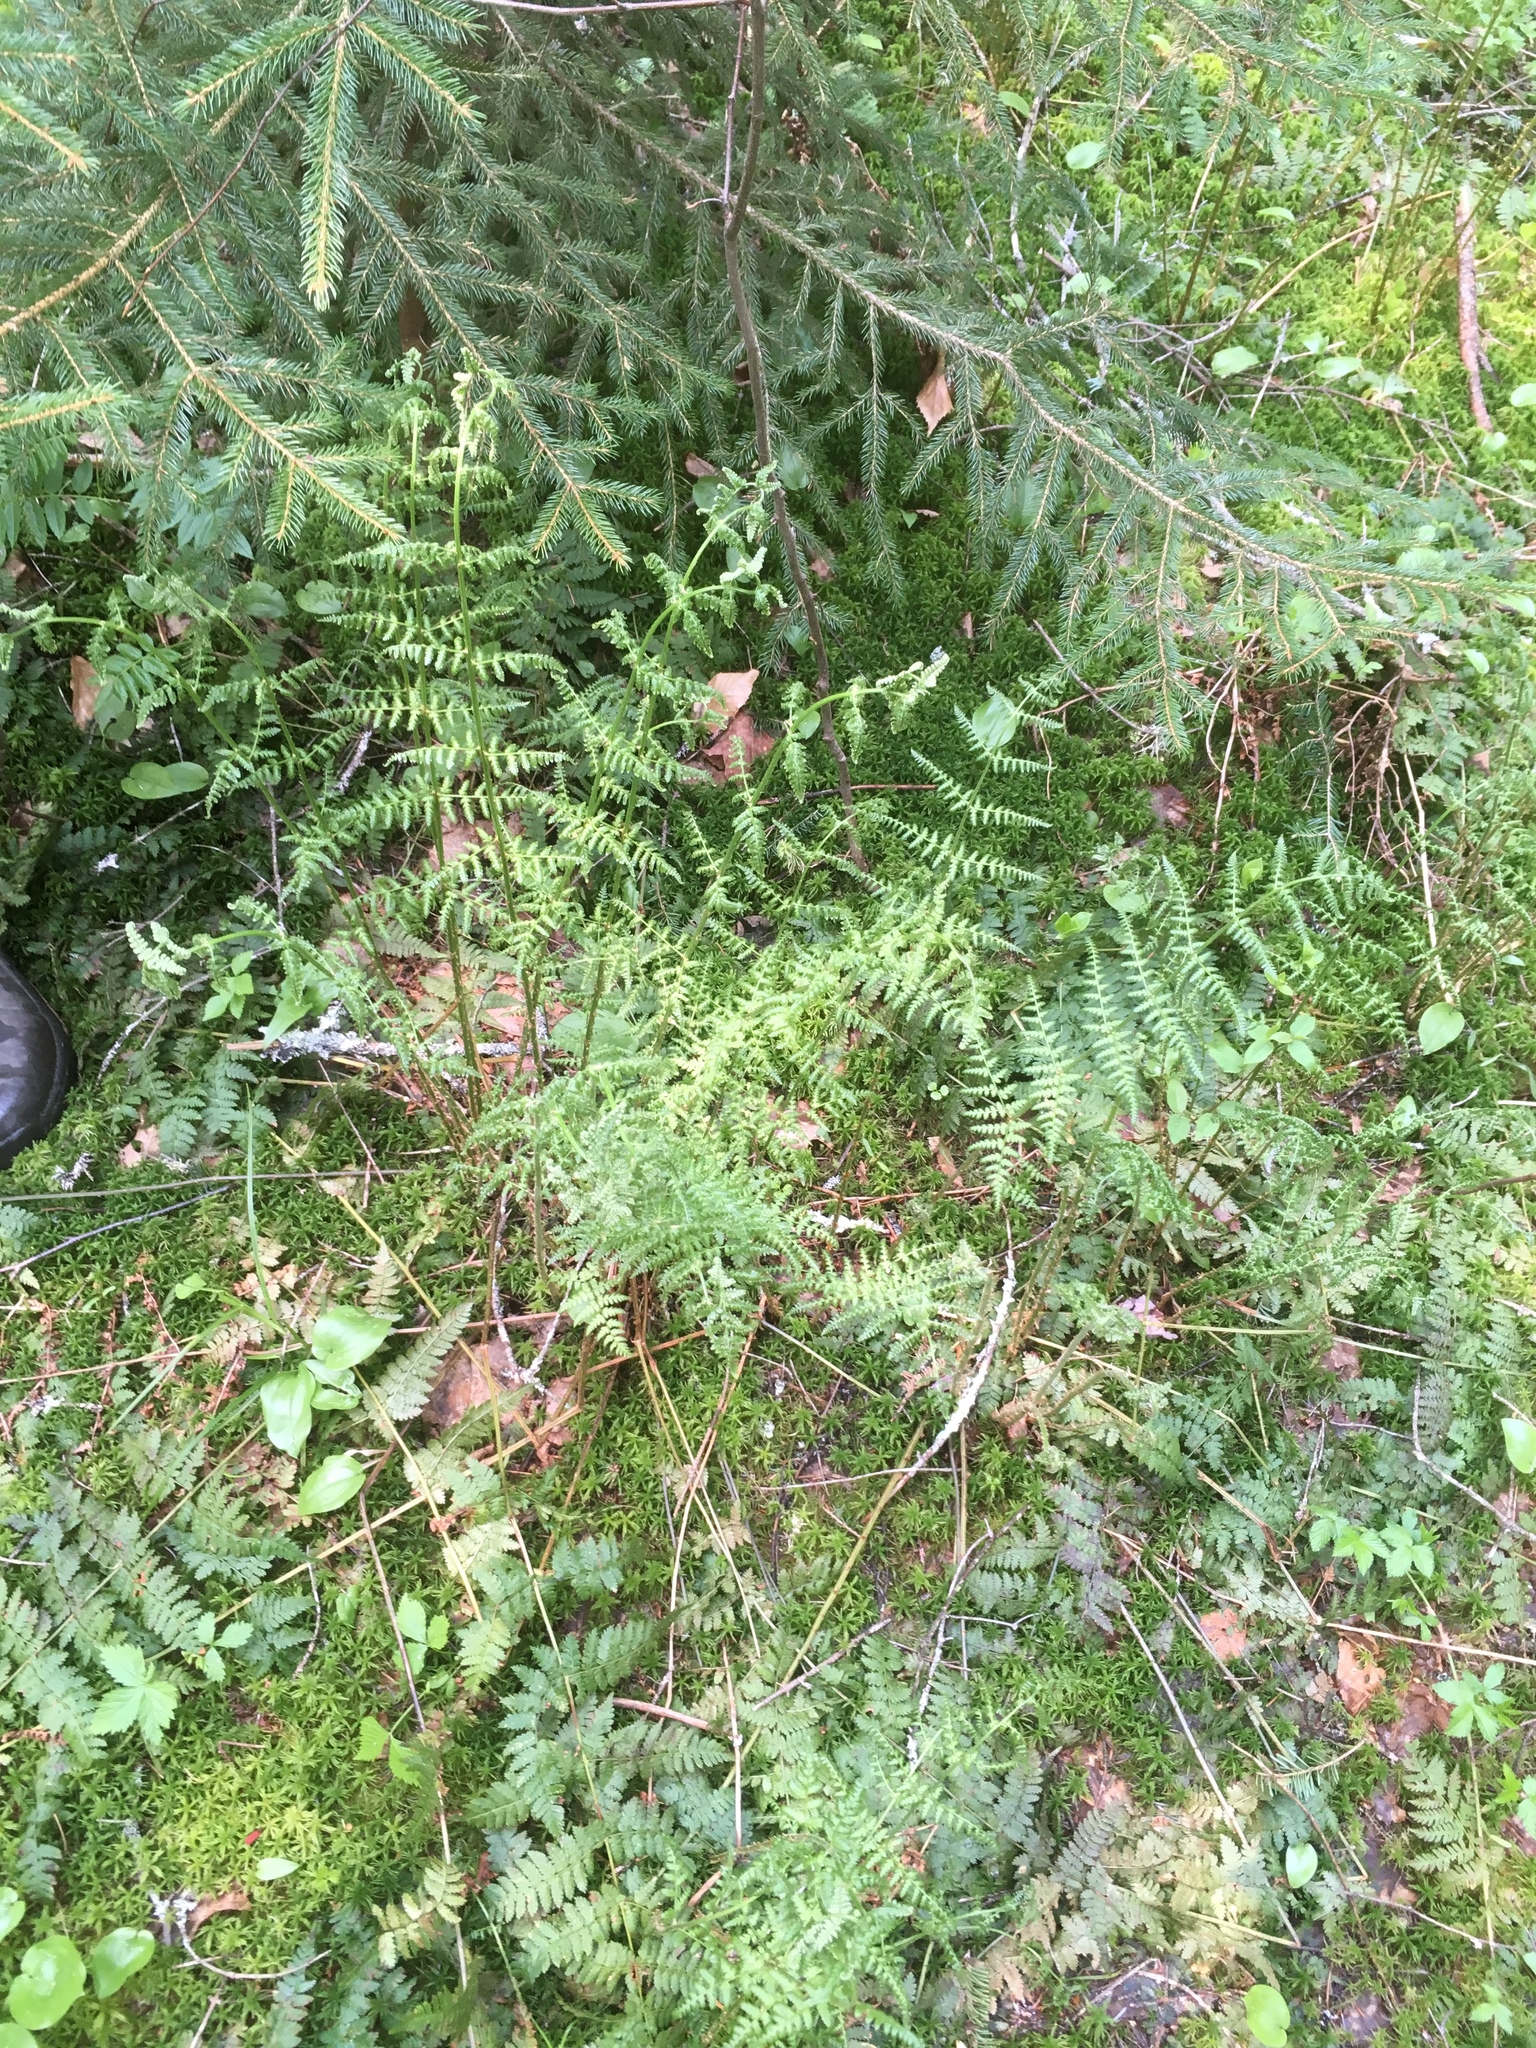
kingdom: Plantae
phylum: Tracheophyta
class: Polypodiopsida
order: Polypodiales
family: Dryopteridaceae
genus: Dryopteris
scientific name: Dryopteris intermedia
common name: Evergreen wood fern
